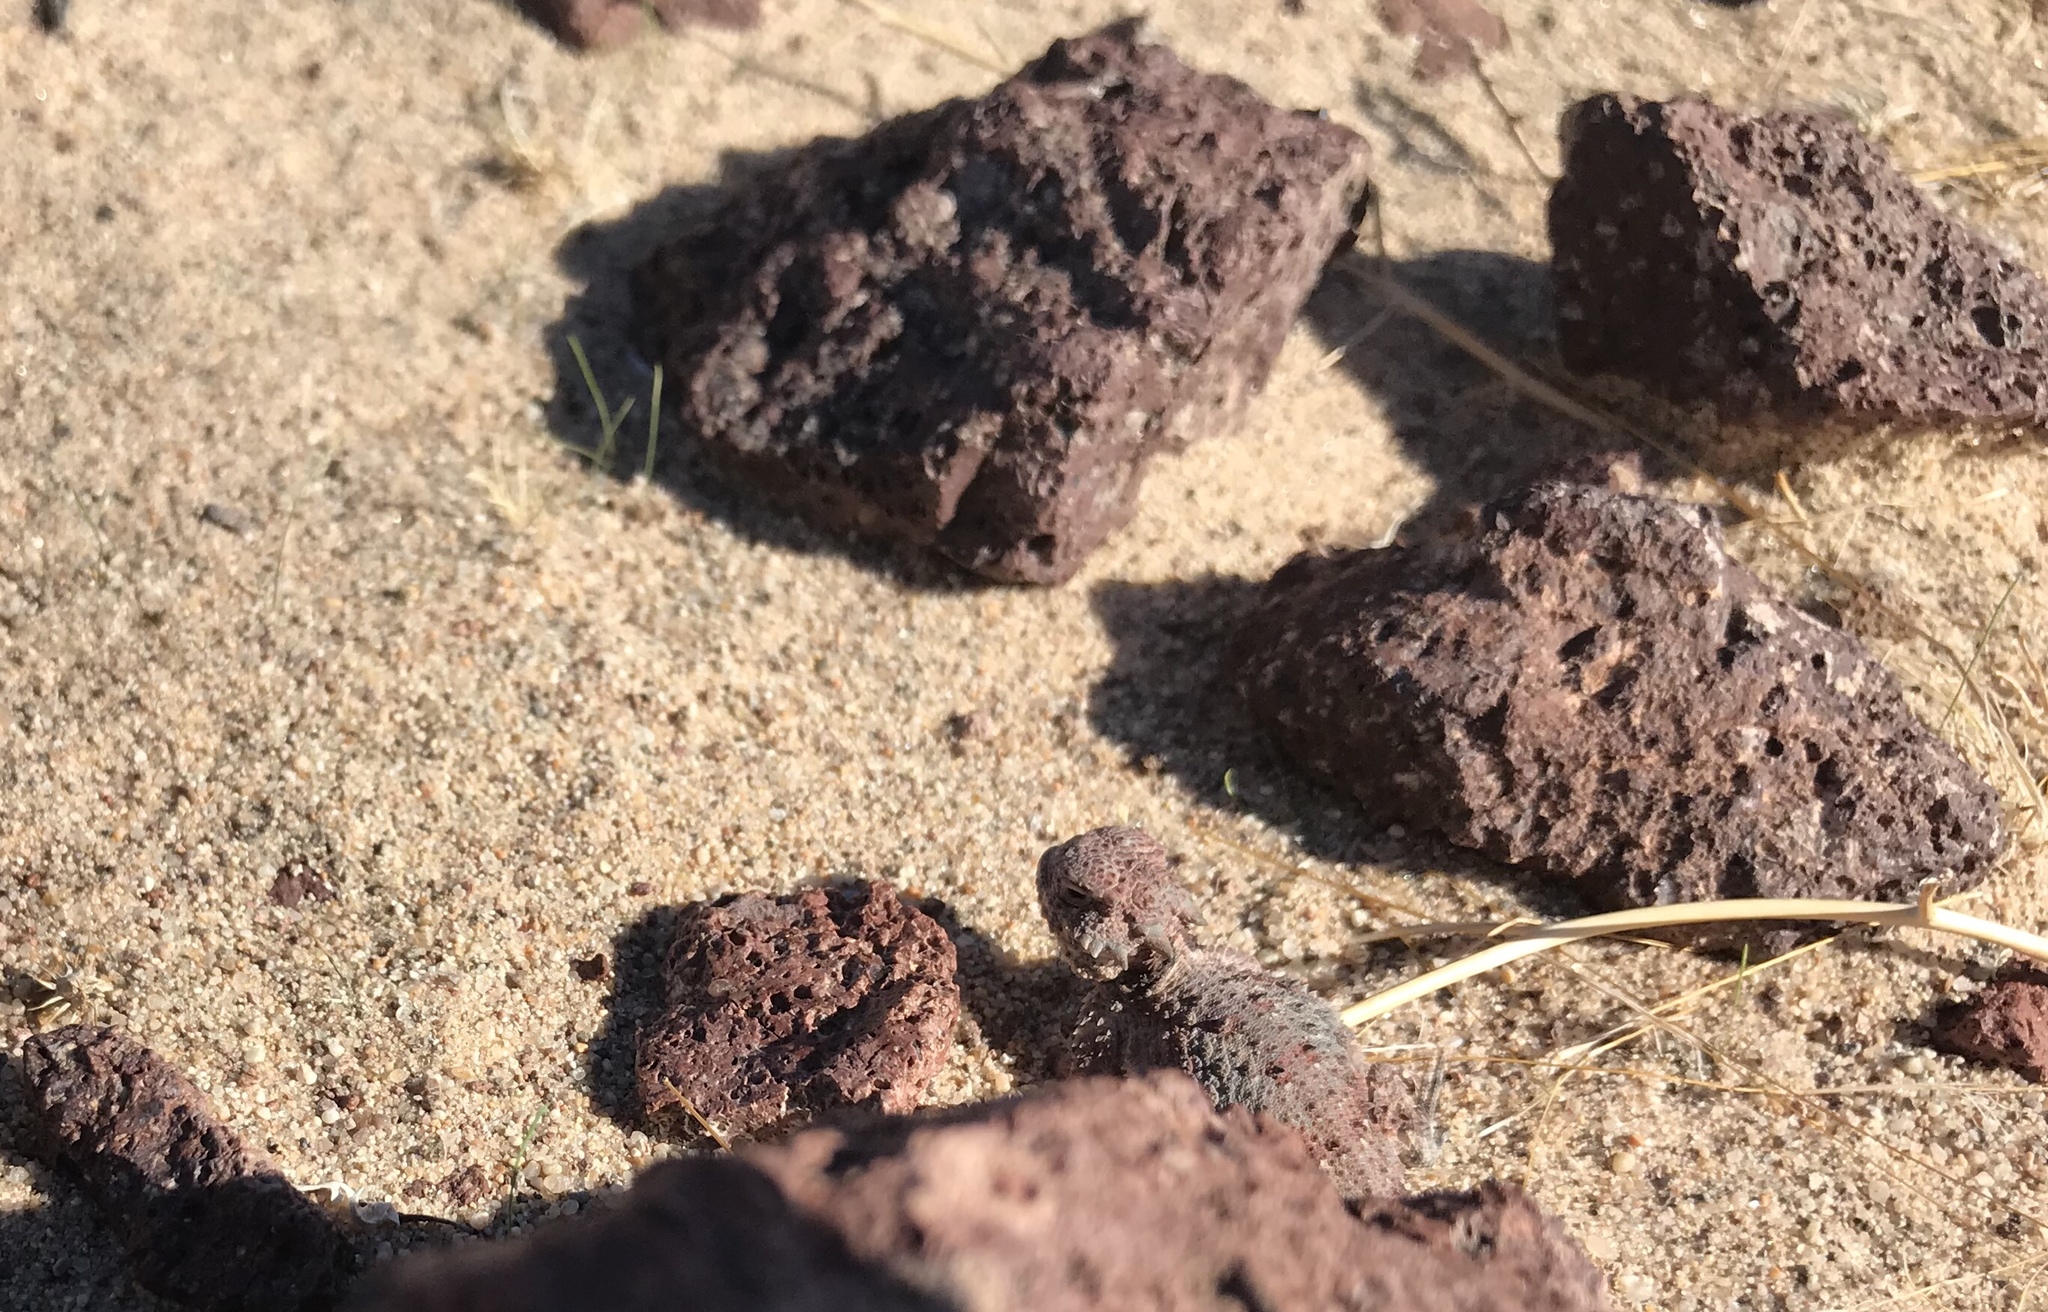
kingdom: Animalia
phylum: Chordata
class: Squamata
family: Phrynosomatidae
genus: Phrynosoma
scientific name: Phrynosoma platyrhinos
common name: Desert horned lizard
